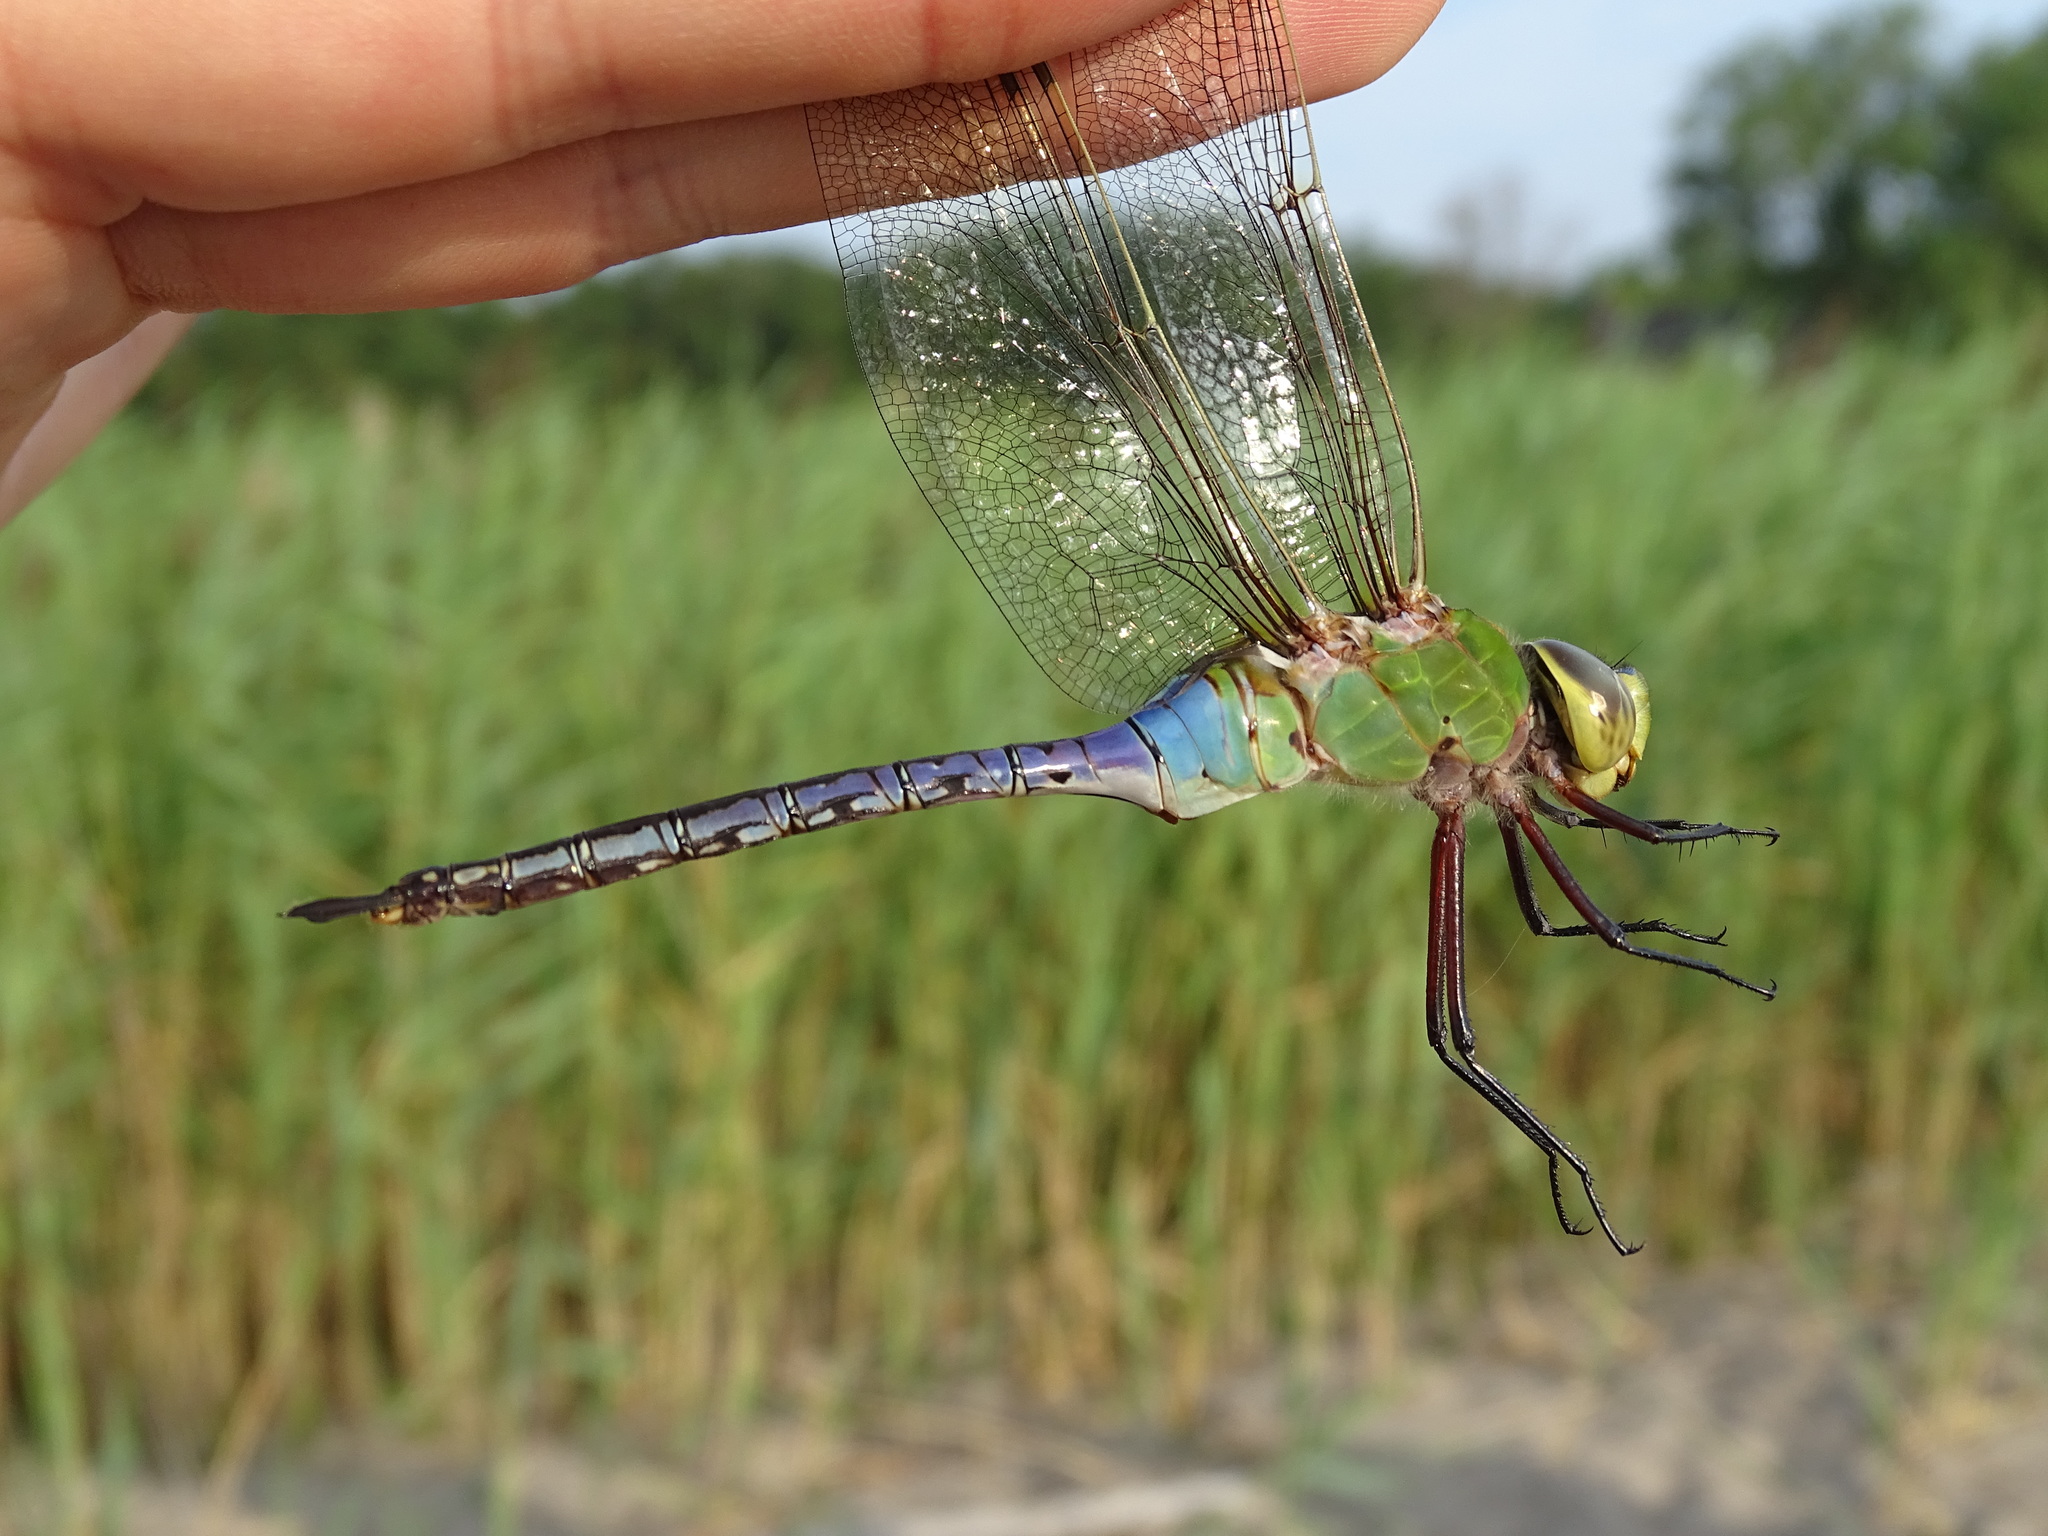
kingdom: Animalia
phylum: Arthropoda
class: Insecta
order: Odonata
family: Aeshnidae
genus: Anax
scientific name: Anax junius
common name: Common green darner
